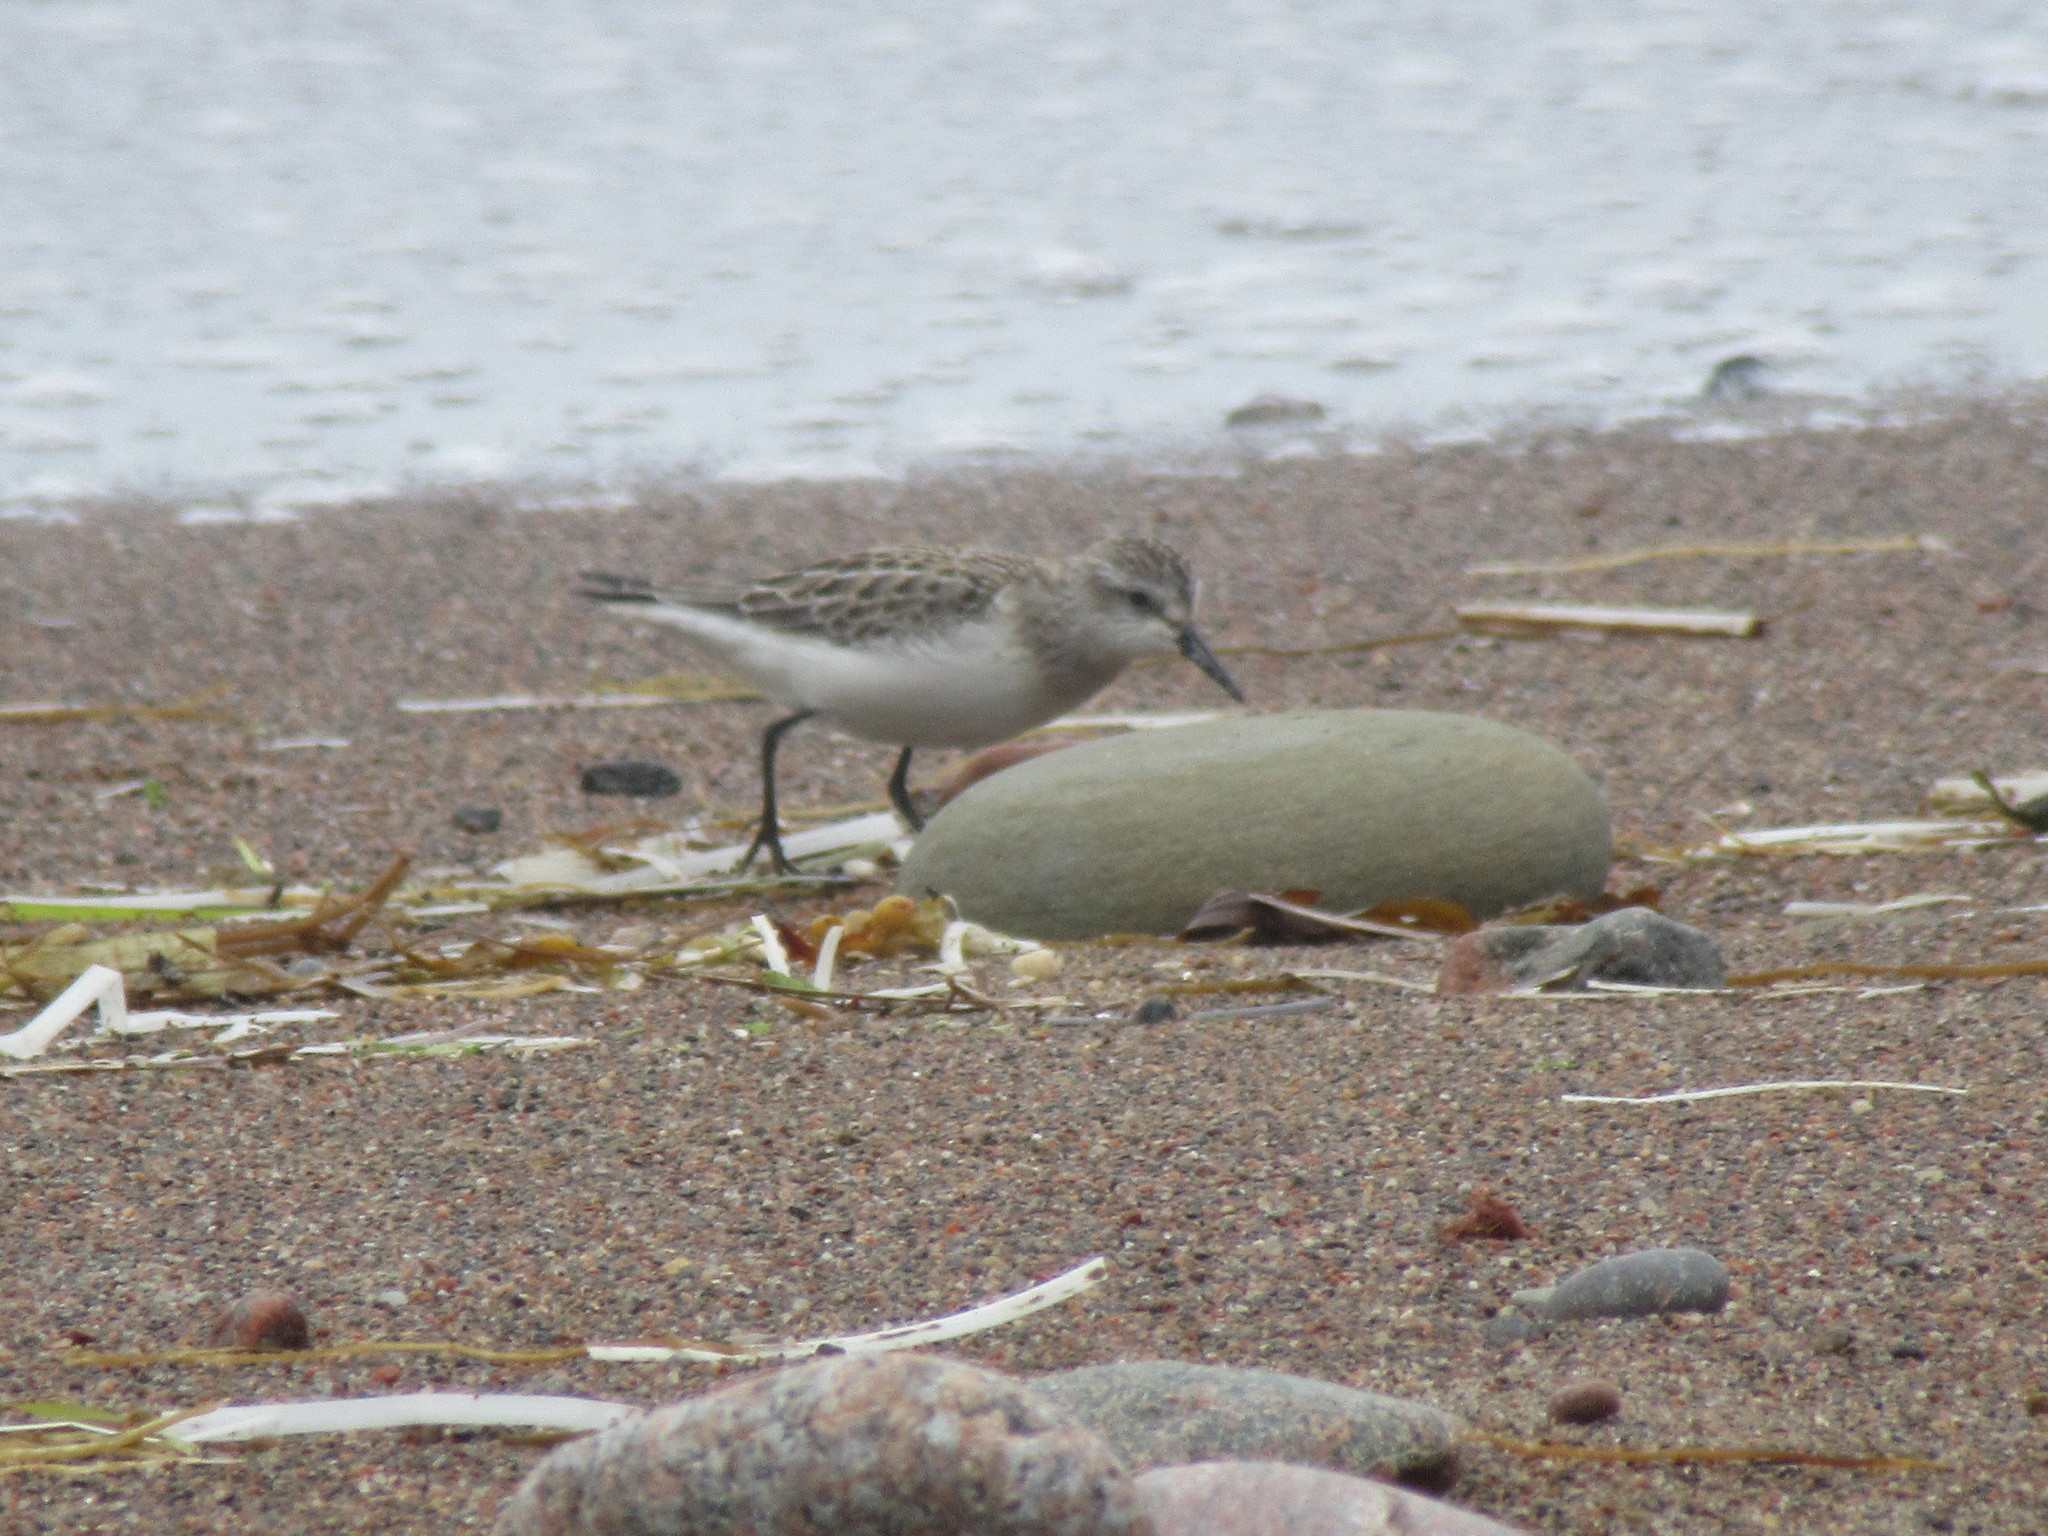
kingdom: Animalia
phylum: Chordata
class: Aves
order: Charadriiformes
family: Scolopacidae
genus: Calidris
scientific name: Calidris pusilla
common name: Semipalmated sandpiper
